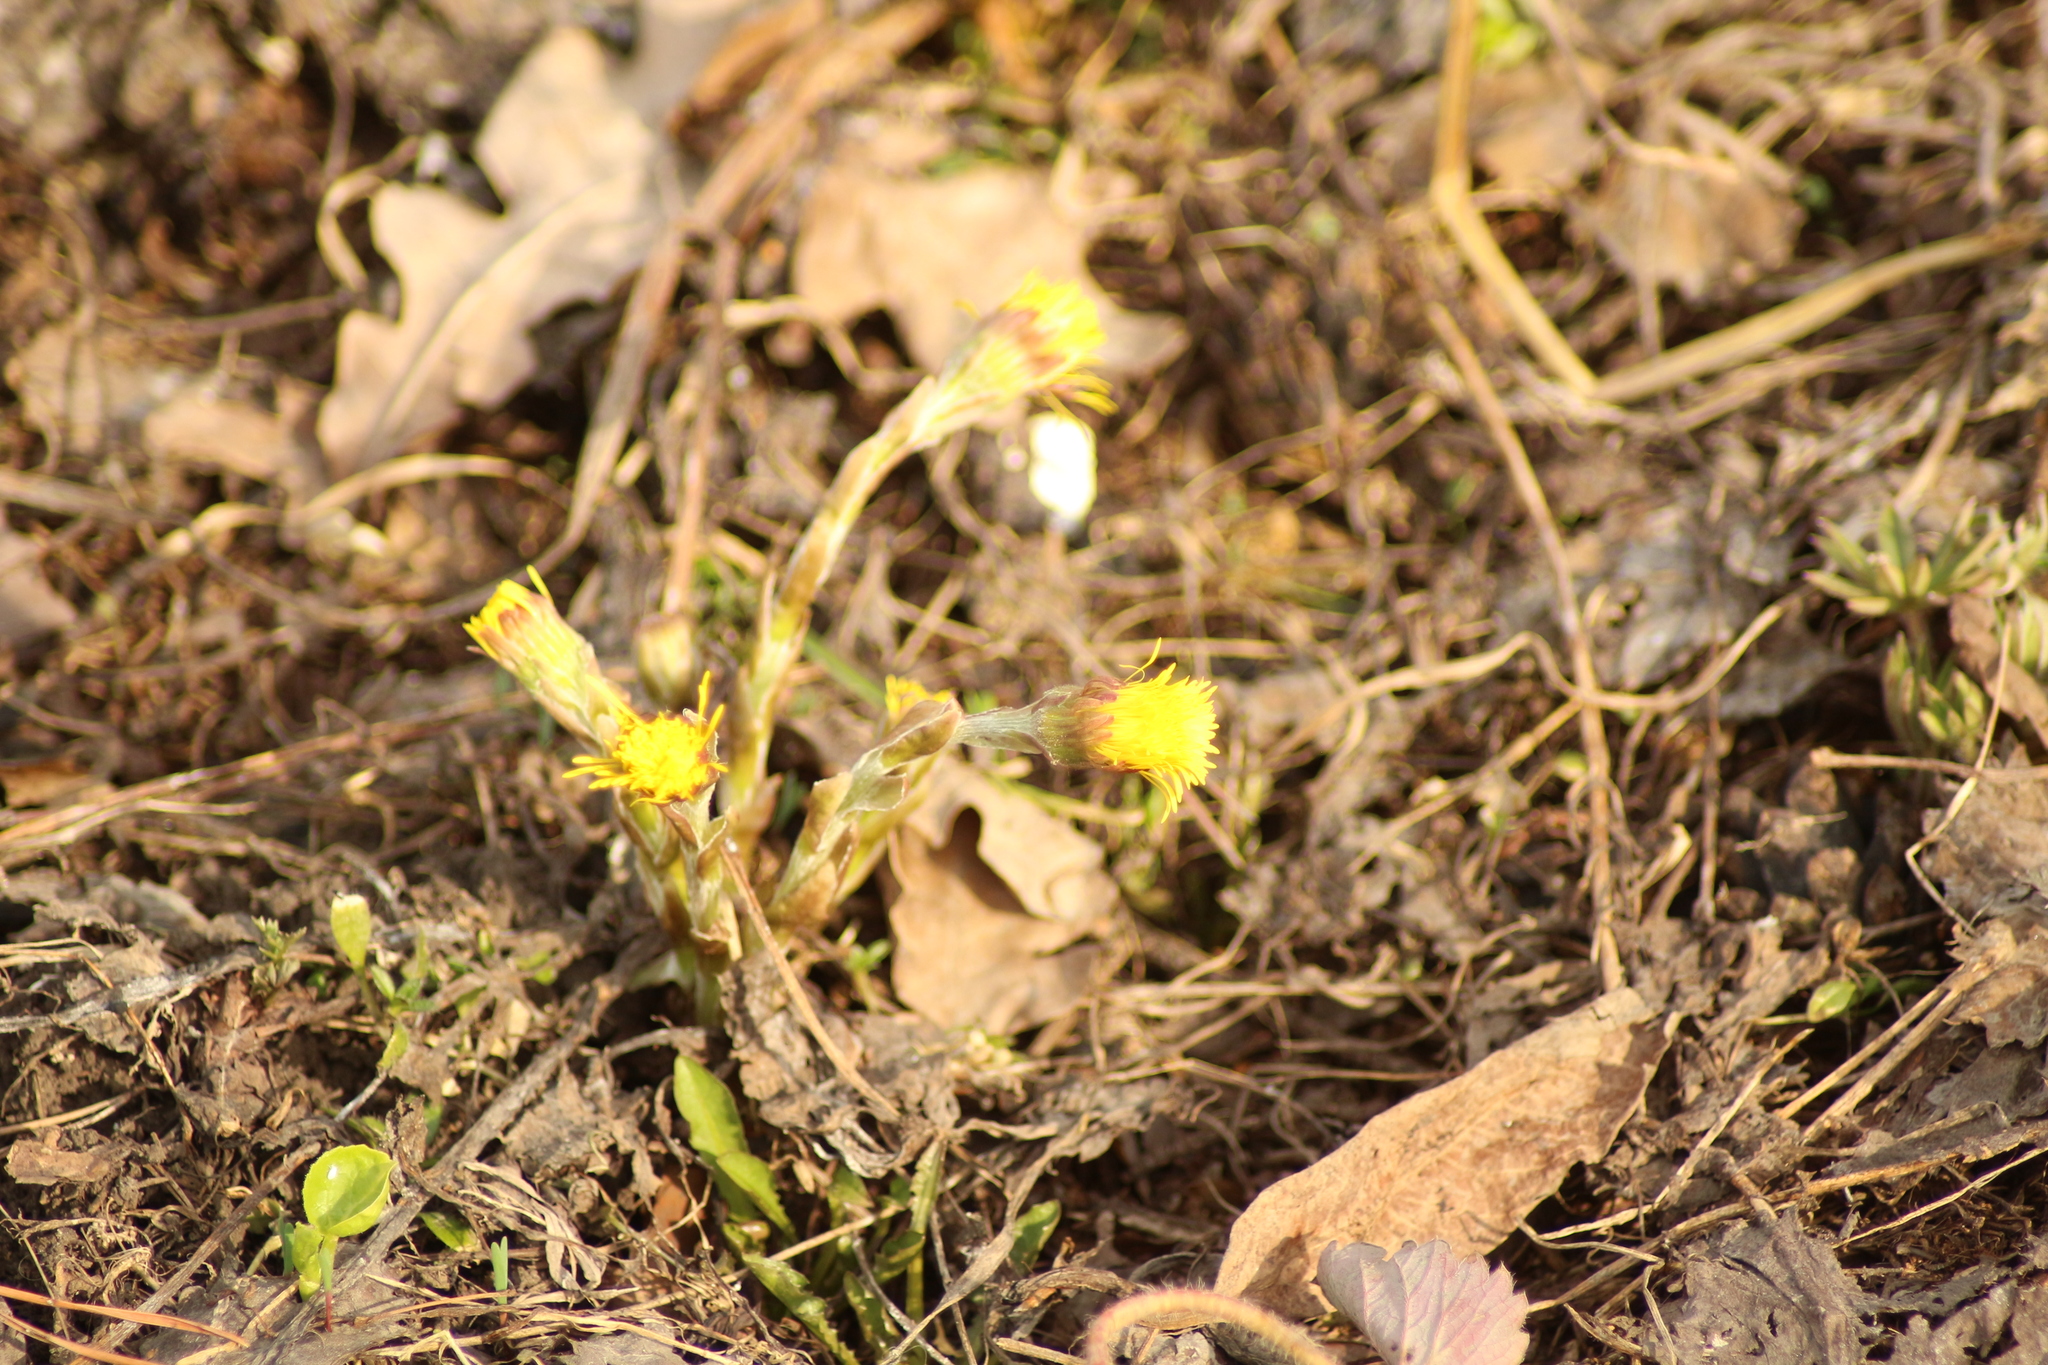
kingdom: Plantae
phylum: Tracheophyta
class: Magnoliopsida
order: Asterales
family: Asteraceae
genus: Tussilago
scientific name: Tussilago farfara
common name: Coltsfoot
